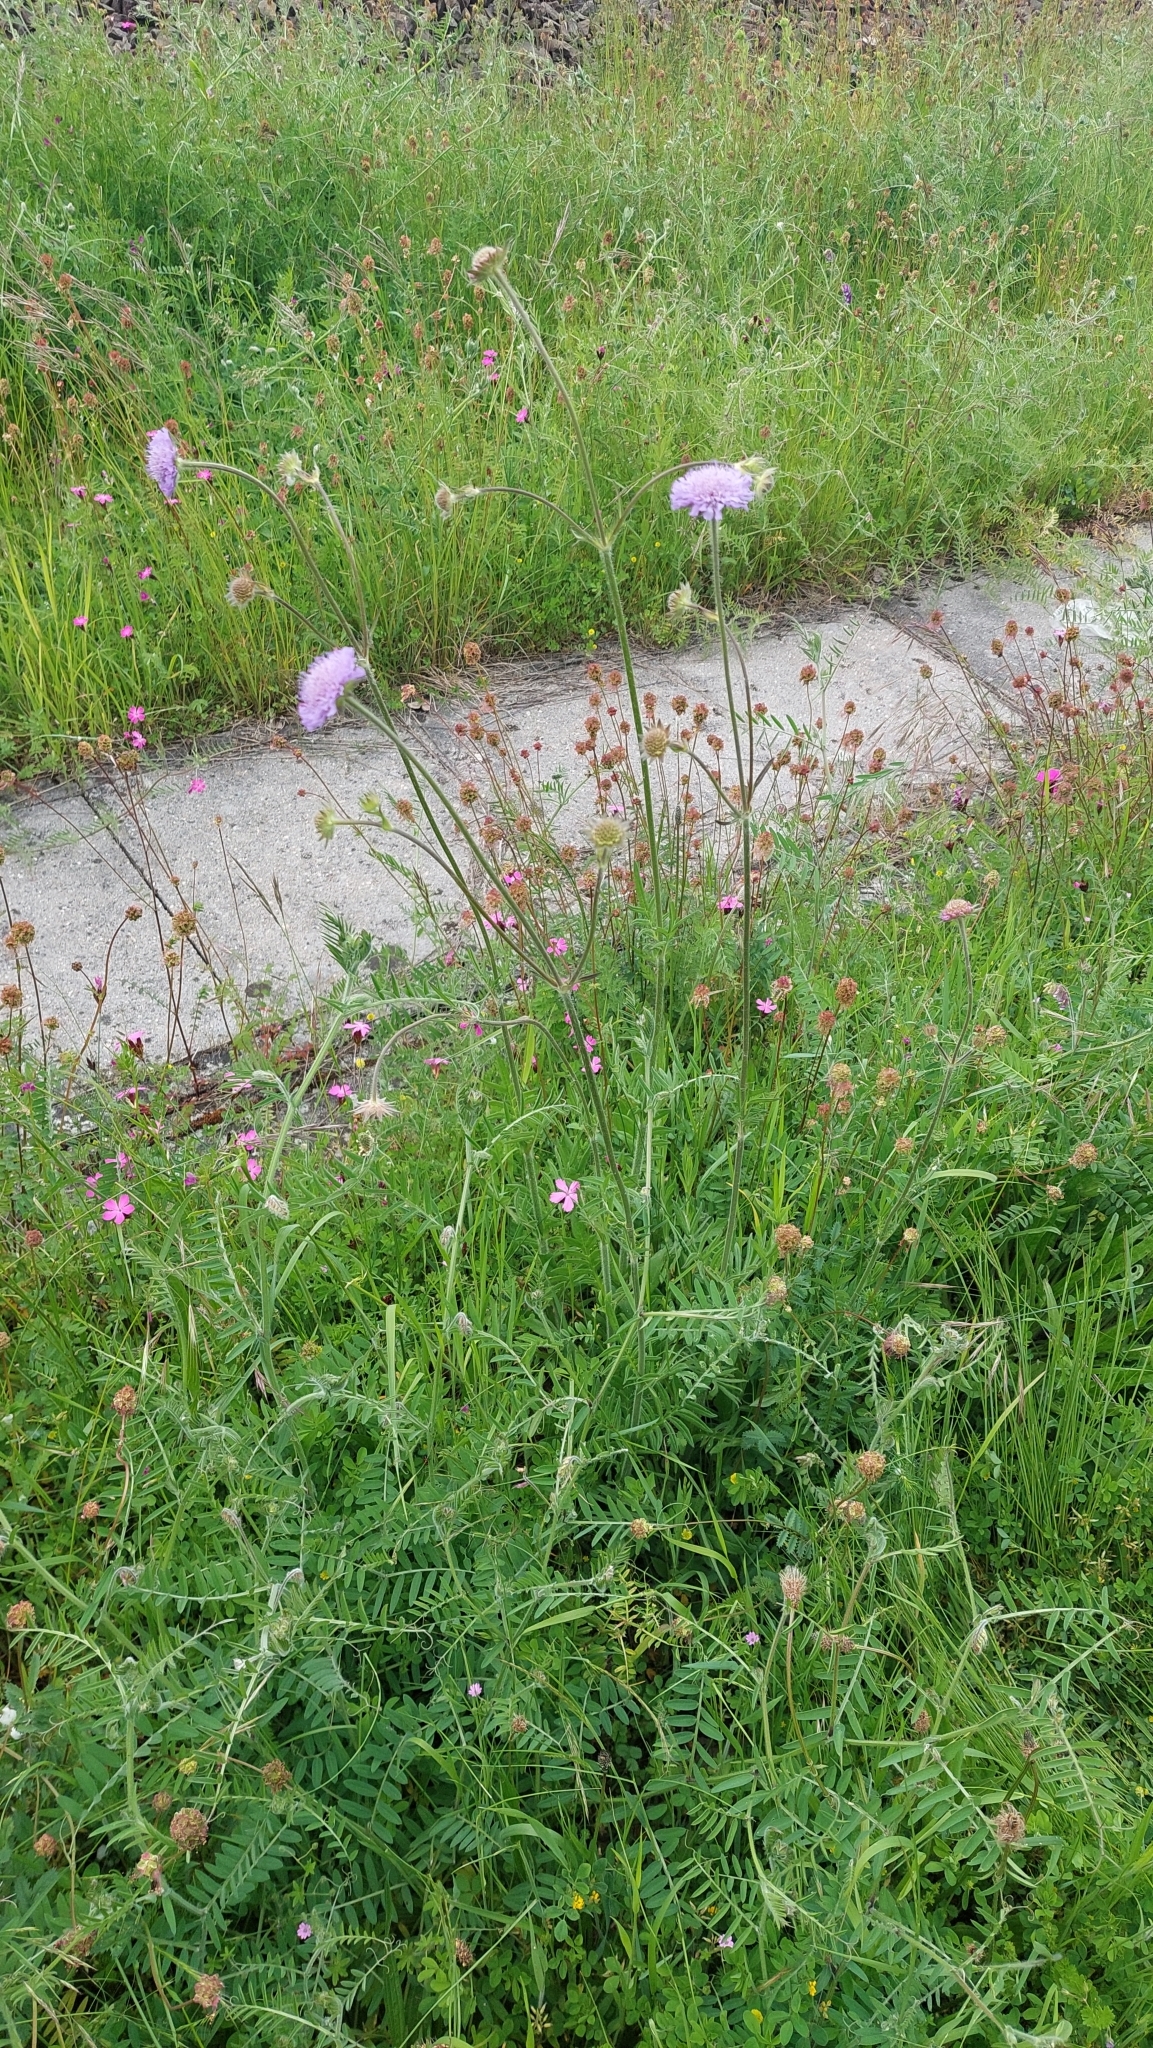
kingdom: Plantae
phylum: Tracheophyta
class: Magnoliopsida
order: Dipsacales
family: Caprifoliaceae
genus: Knautia
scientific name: Knautia arvensis
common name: Field scabiosa
